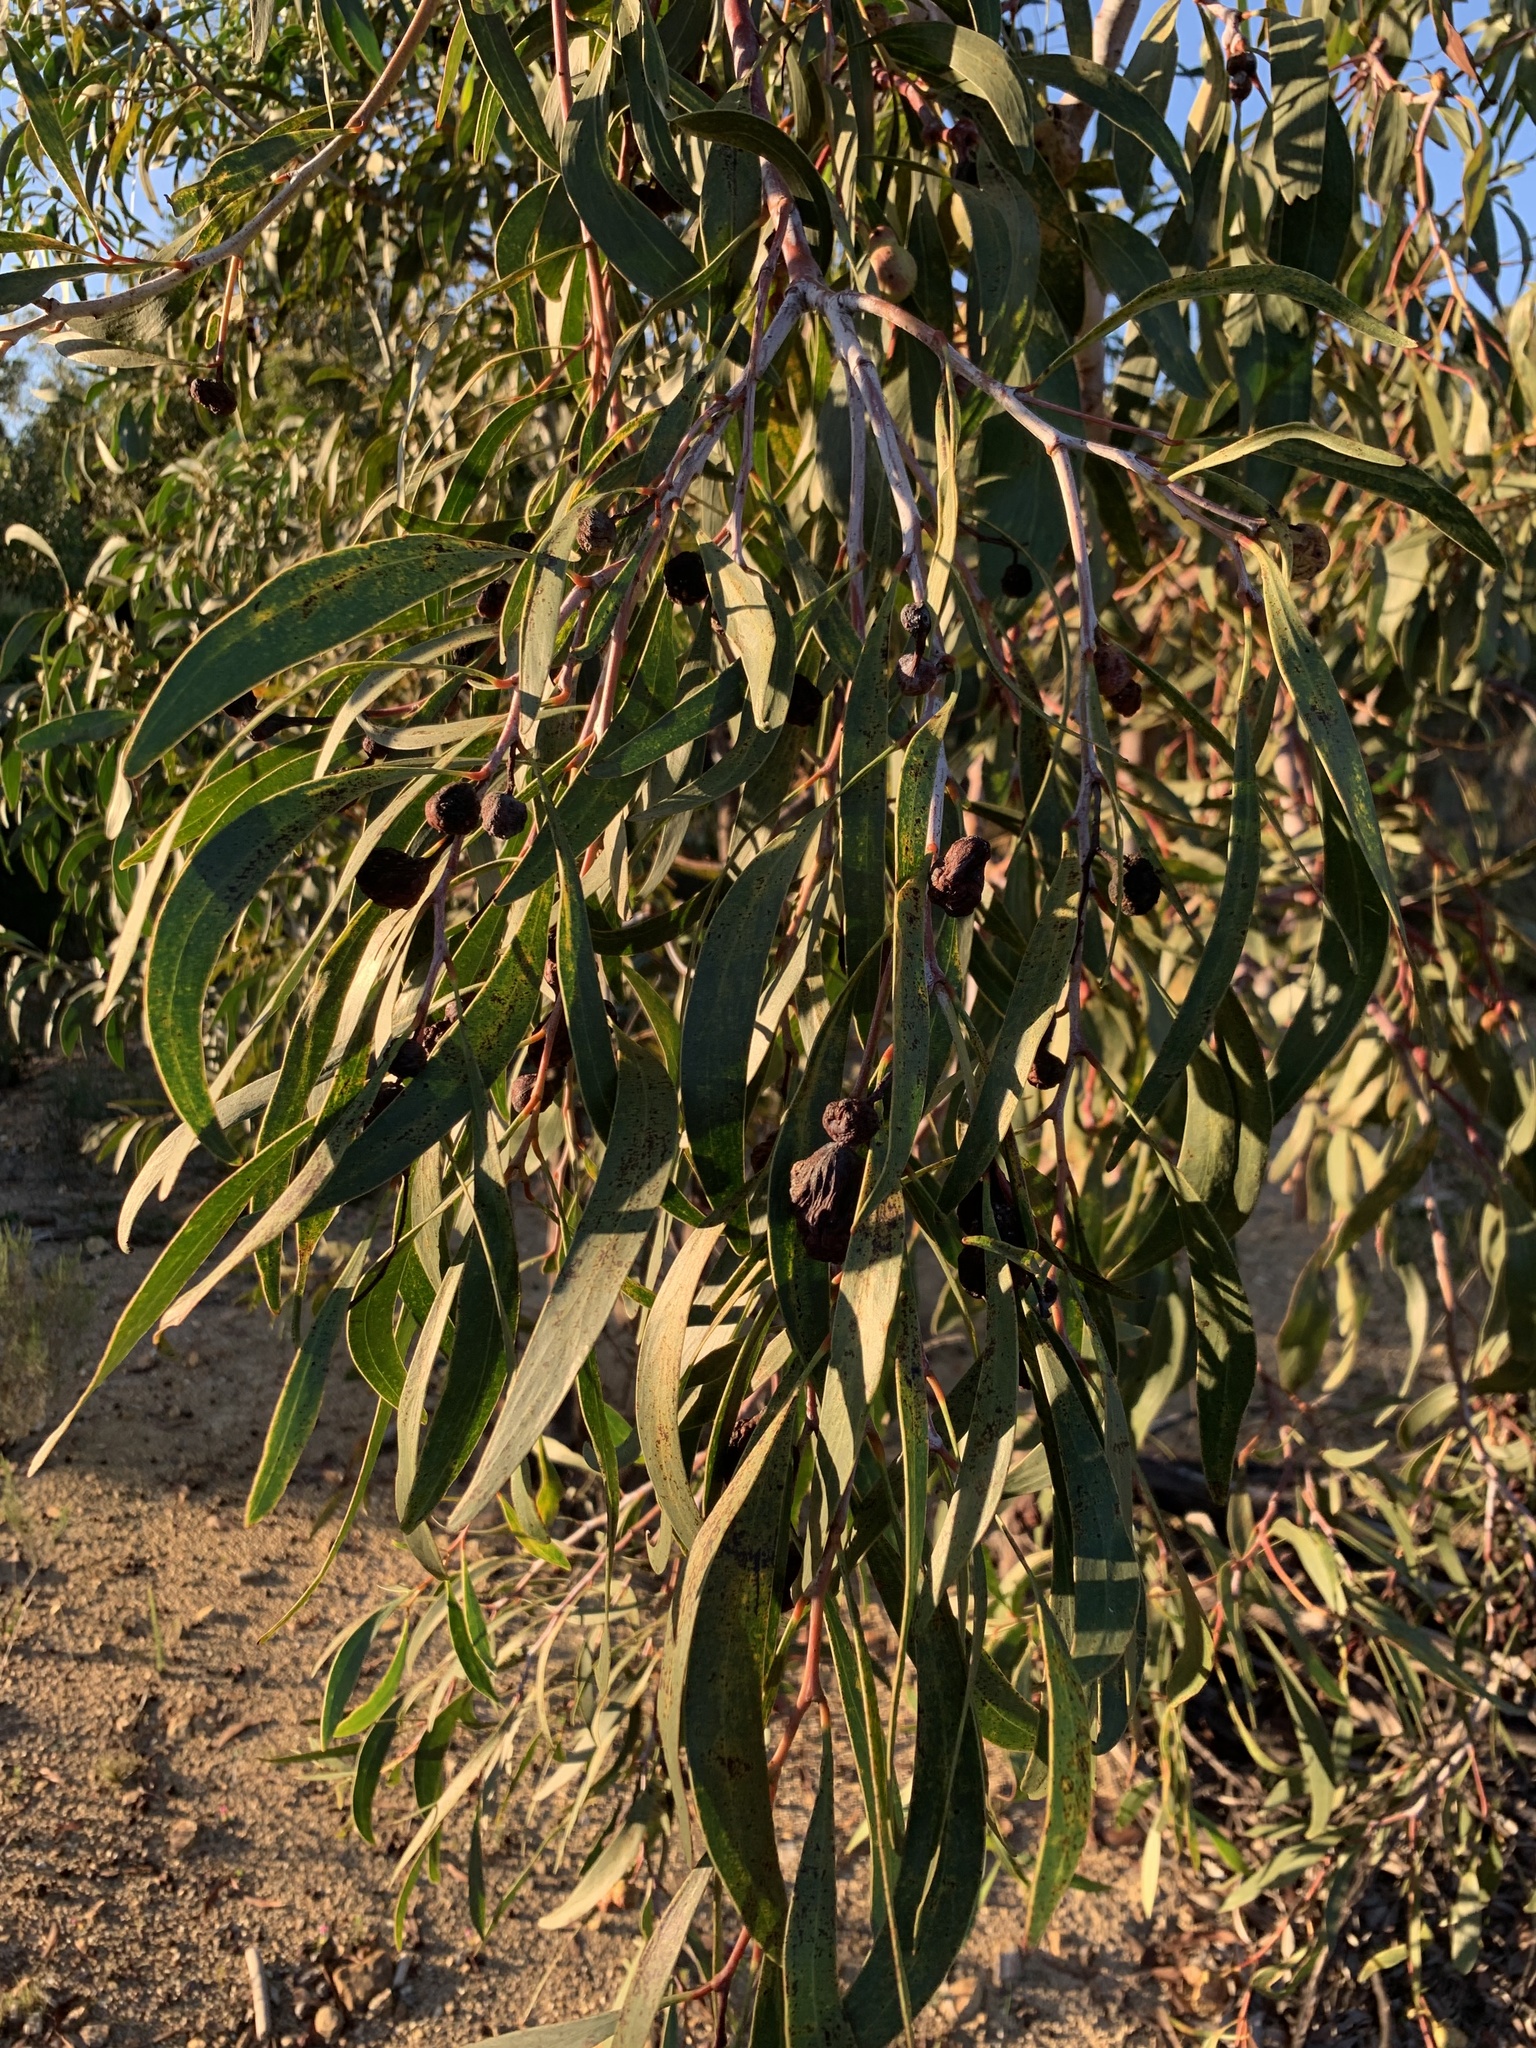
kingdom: Plantae
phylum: Tracheophyta
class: Magnoliopsida
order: Fabales
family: Fabaceae
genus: Acacia
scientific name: Acacia pycnantha
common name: Golden wattle
